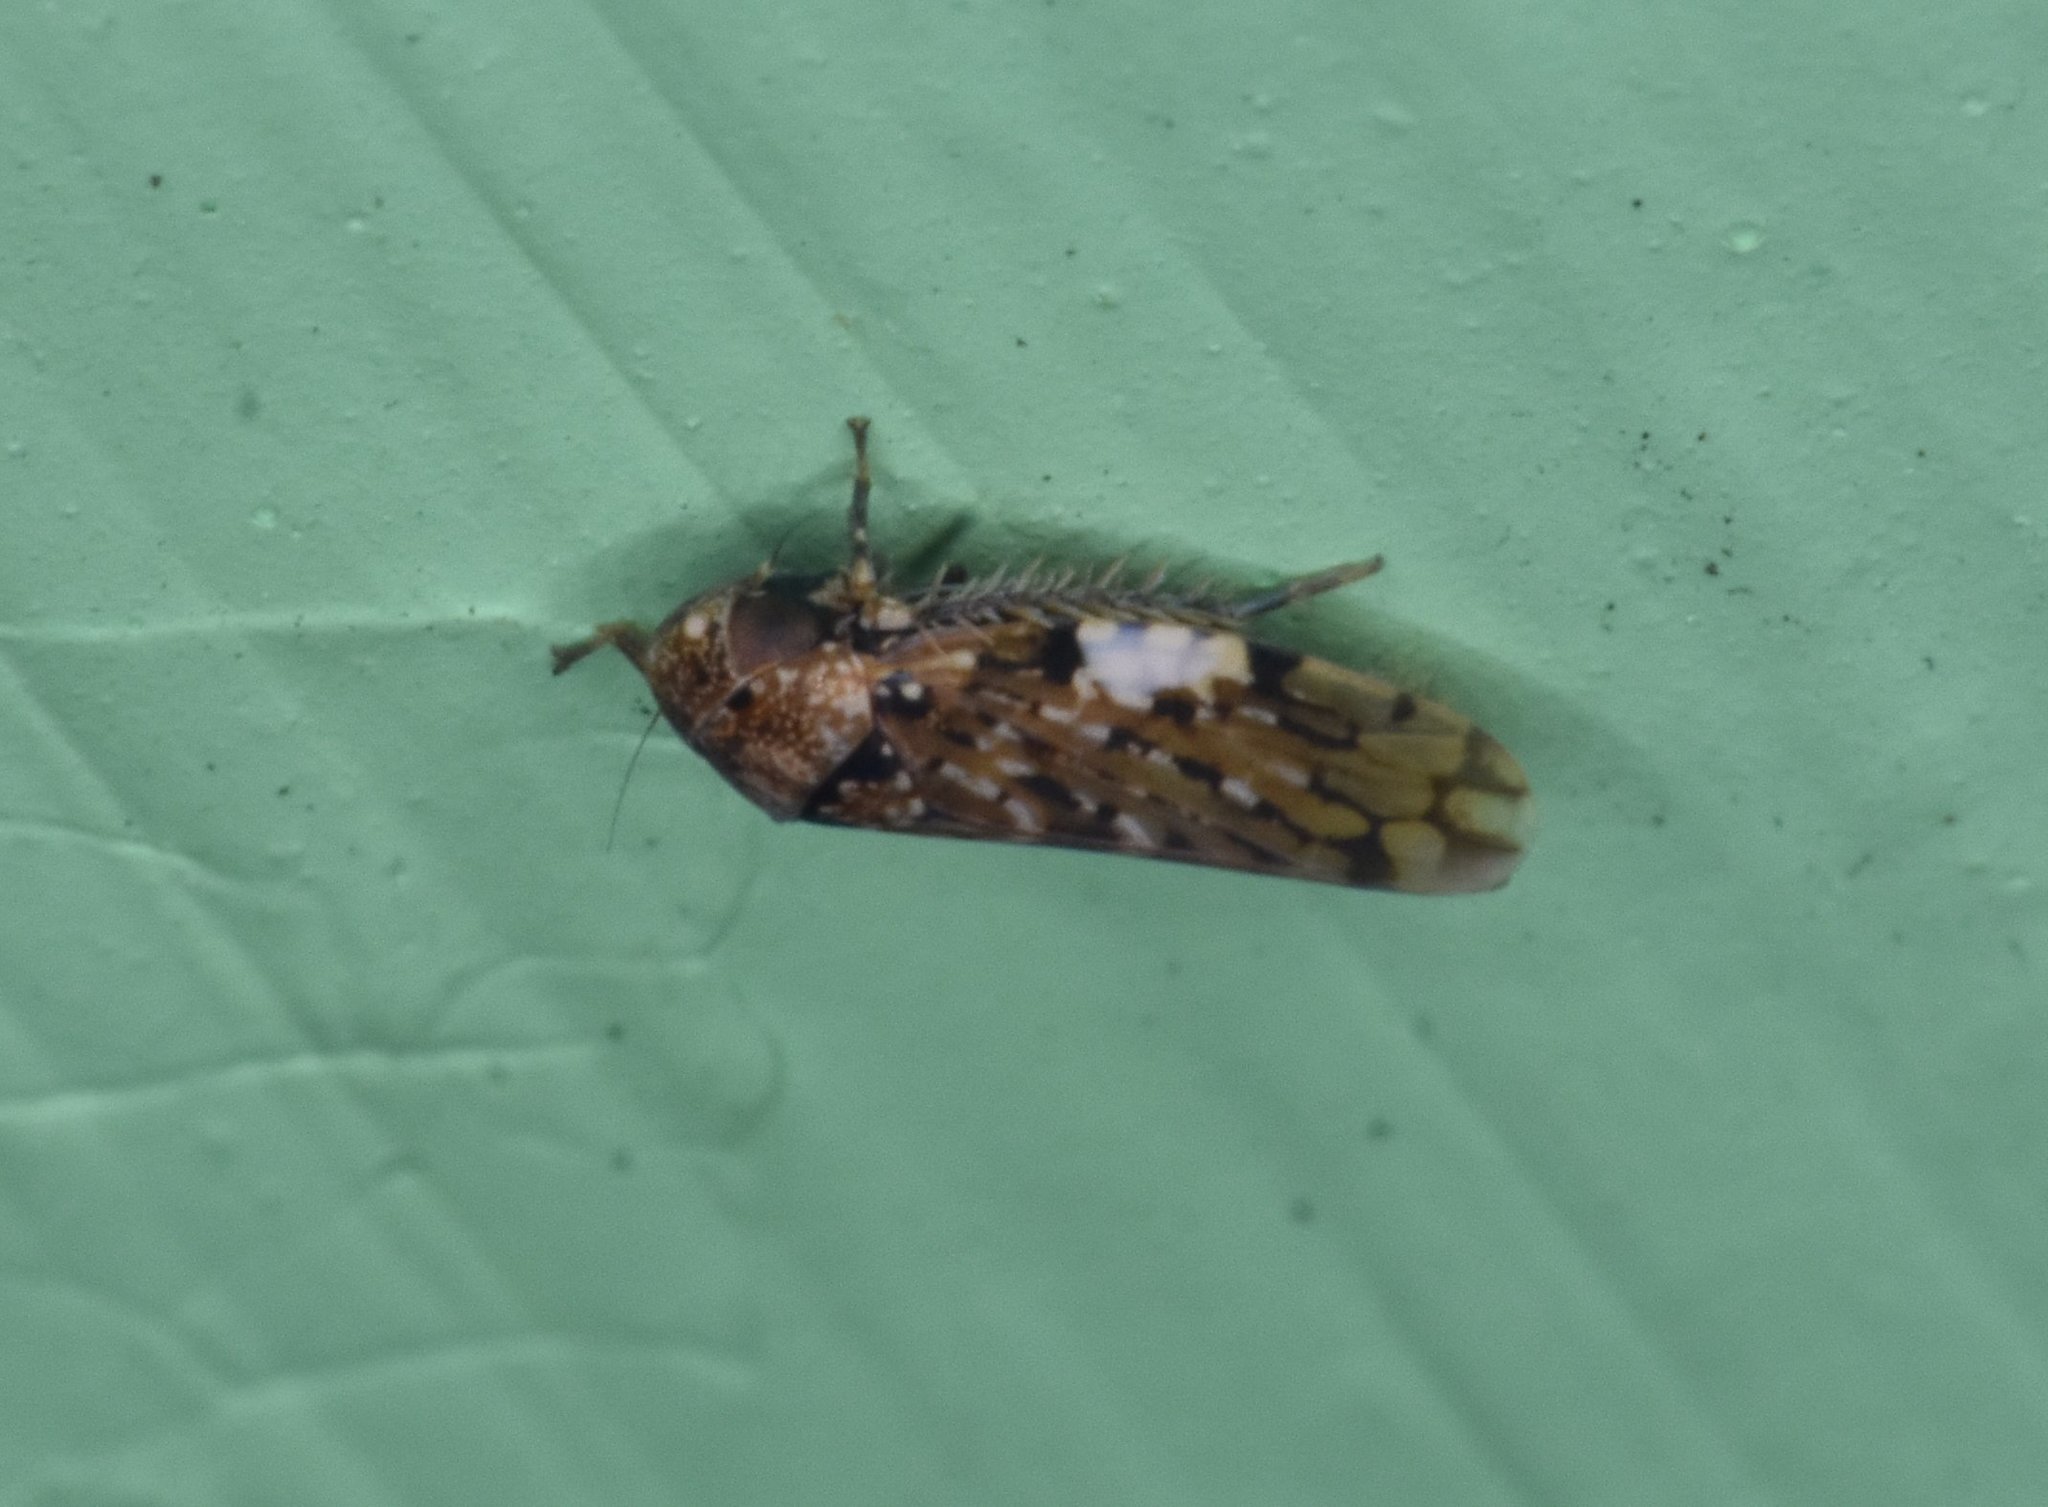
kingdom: Animalia
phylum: Arthropoda
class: Insecta
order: Hemiptera
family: Cicadellidae
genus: Xestocephalus
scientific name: Xestocephalus tessellatus
